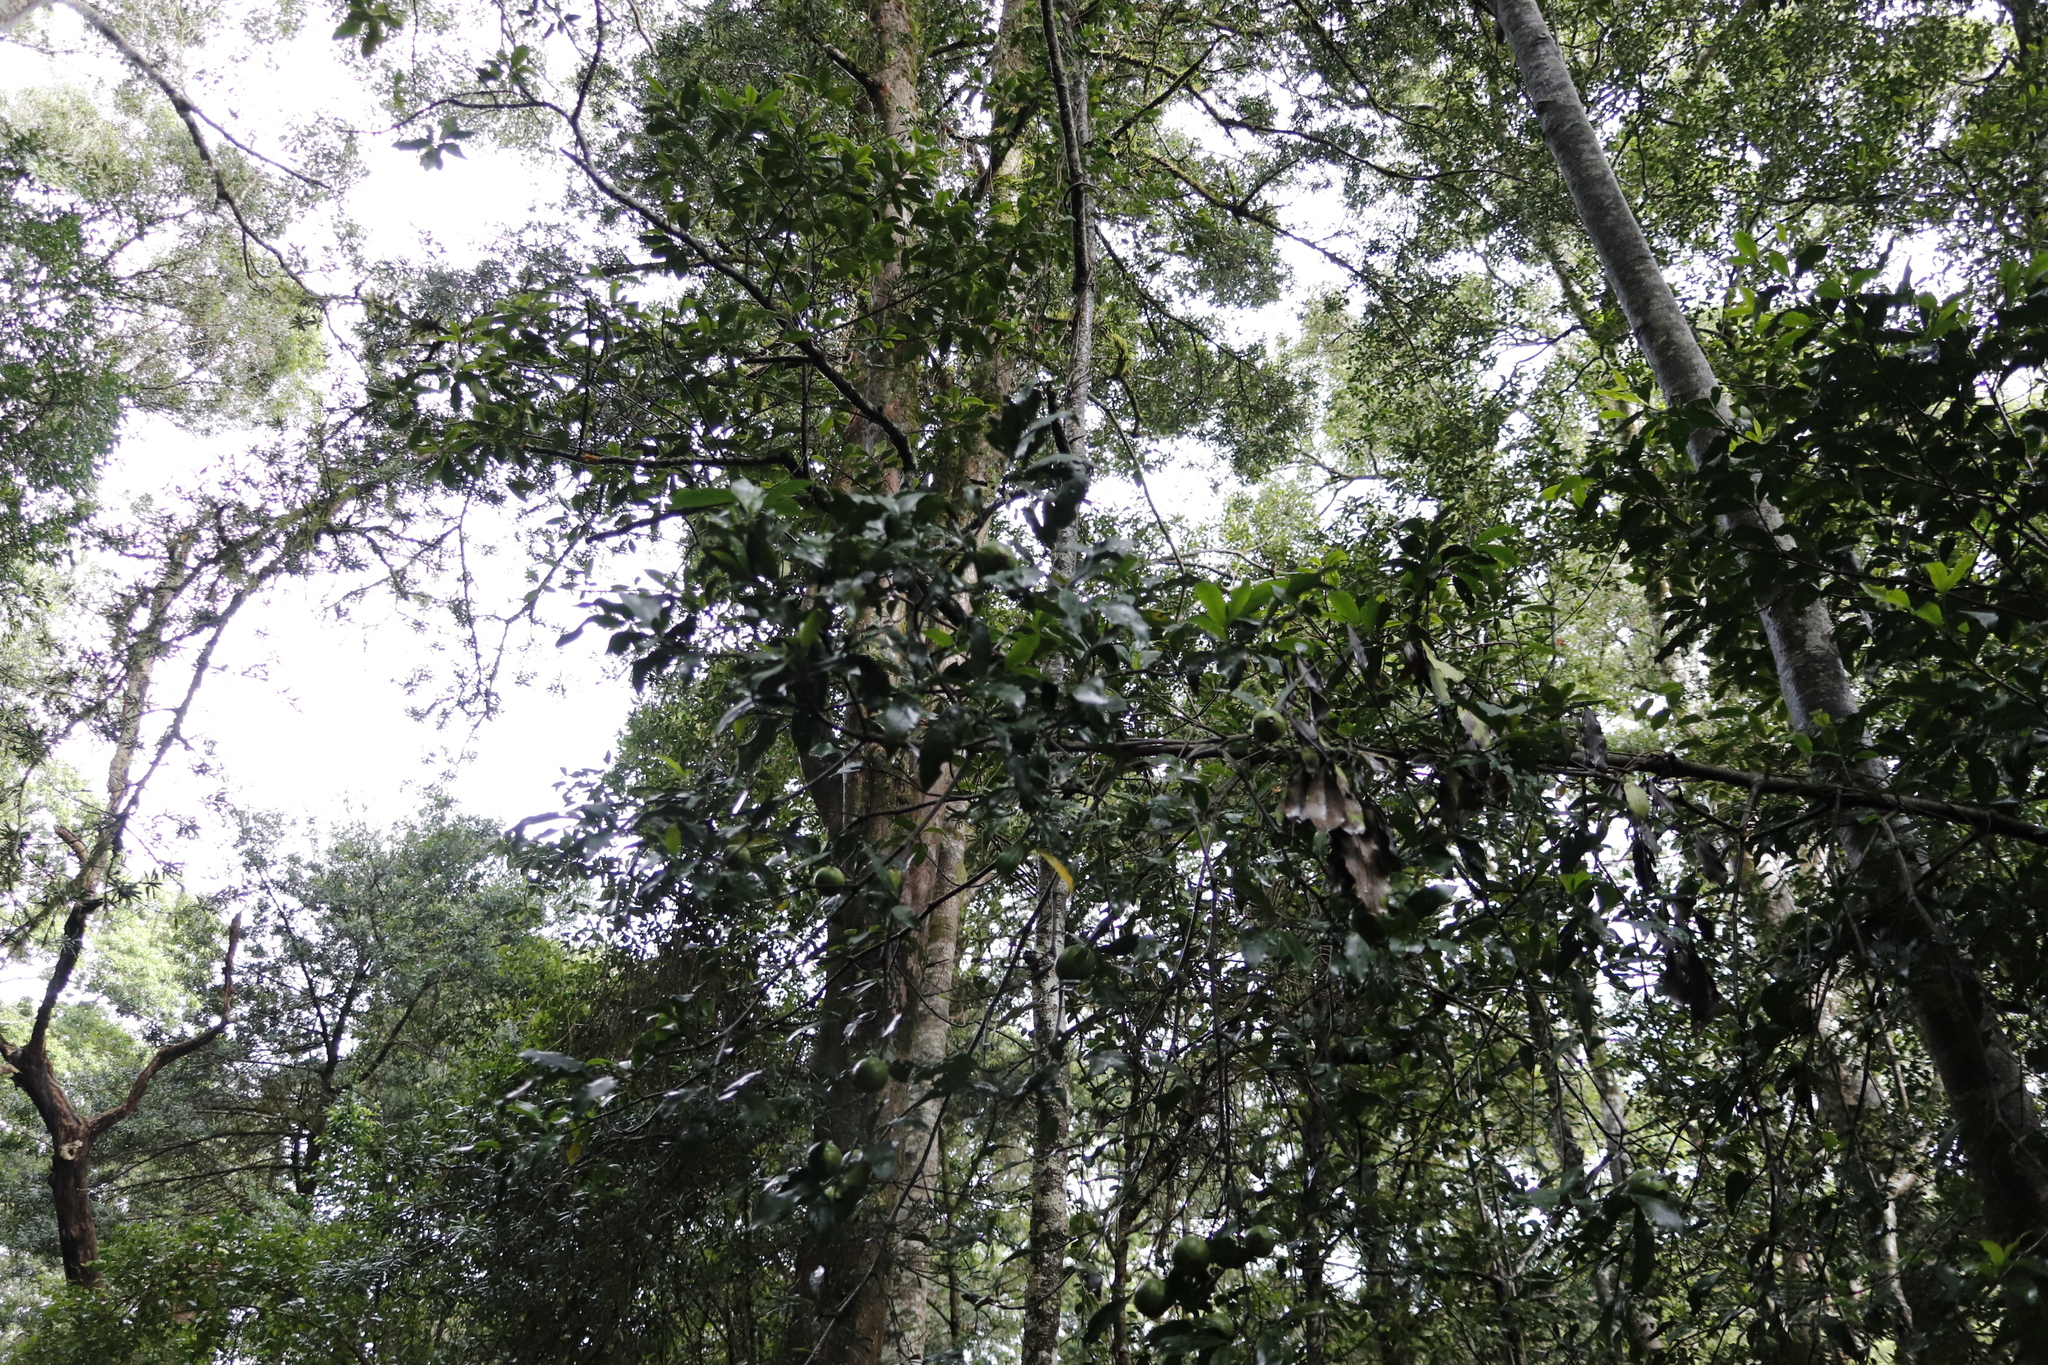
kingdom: Plantae
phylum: Tracheophyta
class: Magnoliopsida
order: Gentianales
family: Rubiaceae
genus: Rothmannia
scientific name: Rothmannia capensis
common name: Cape gardenia
